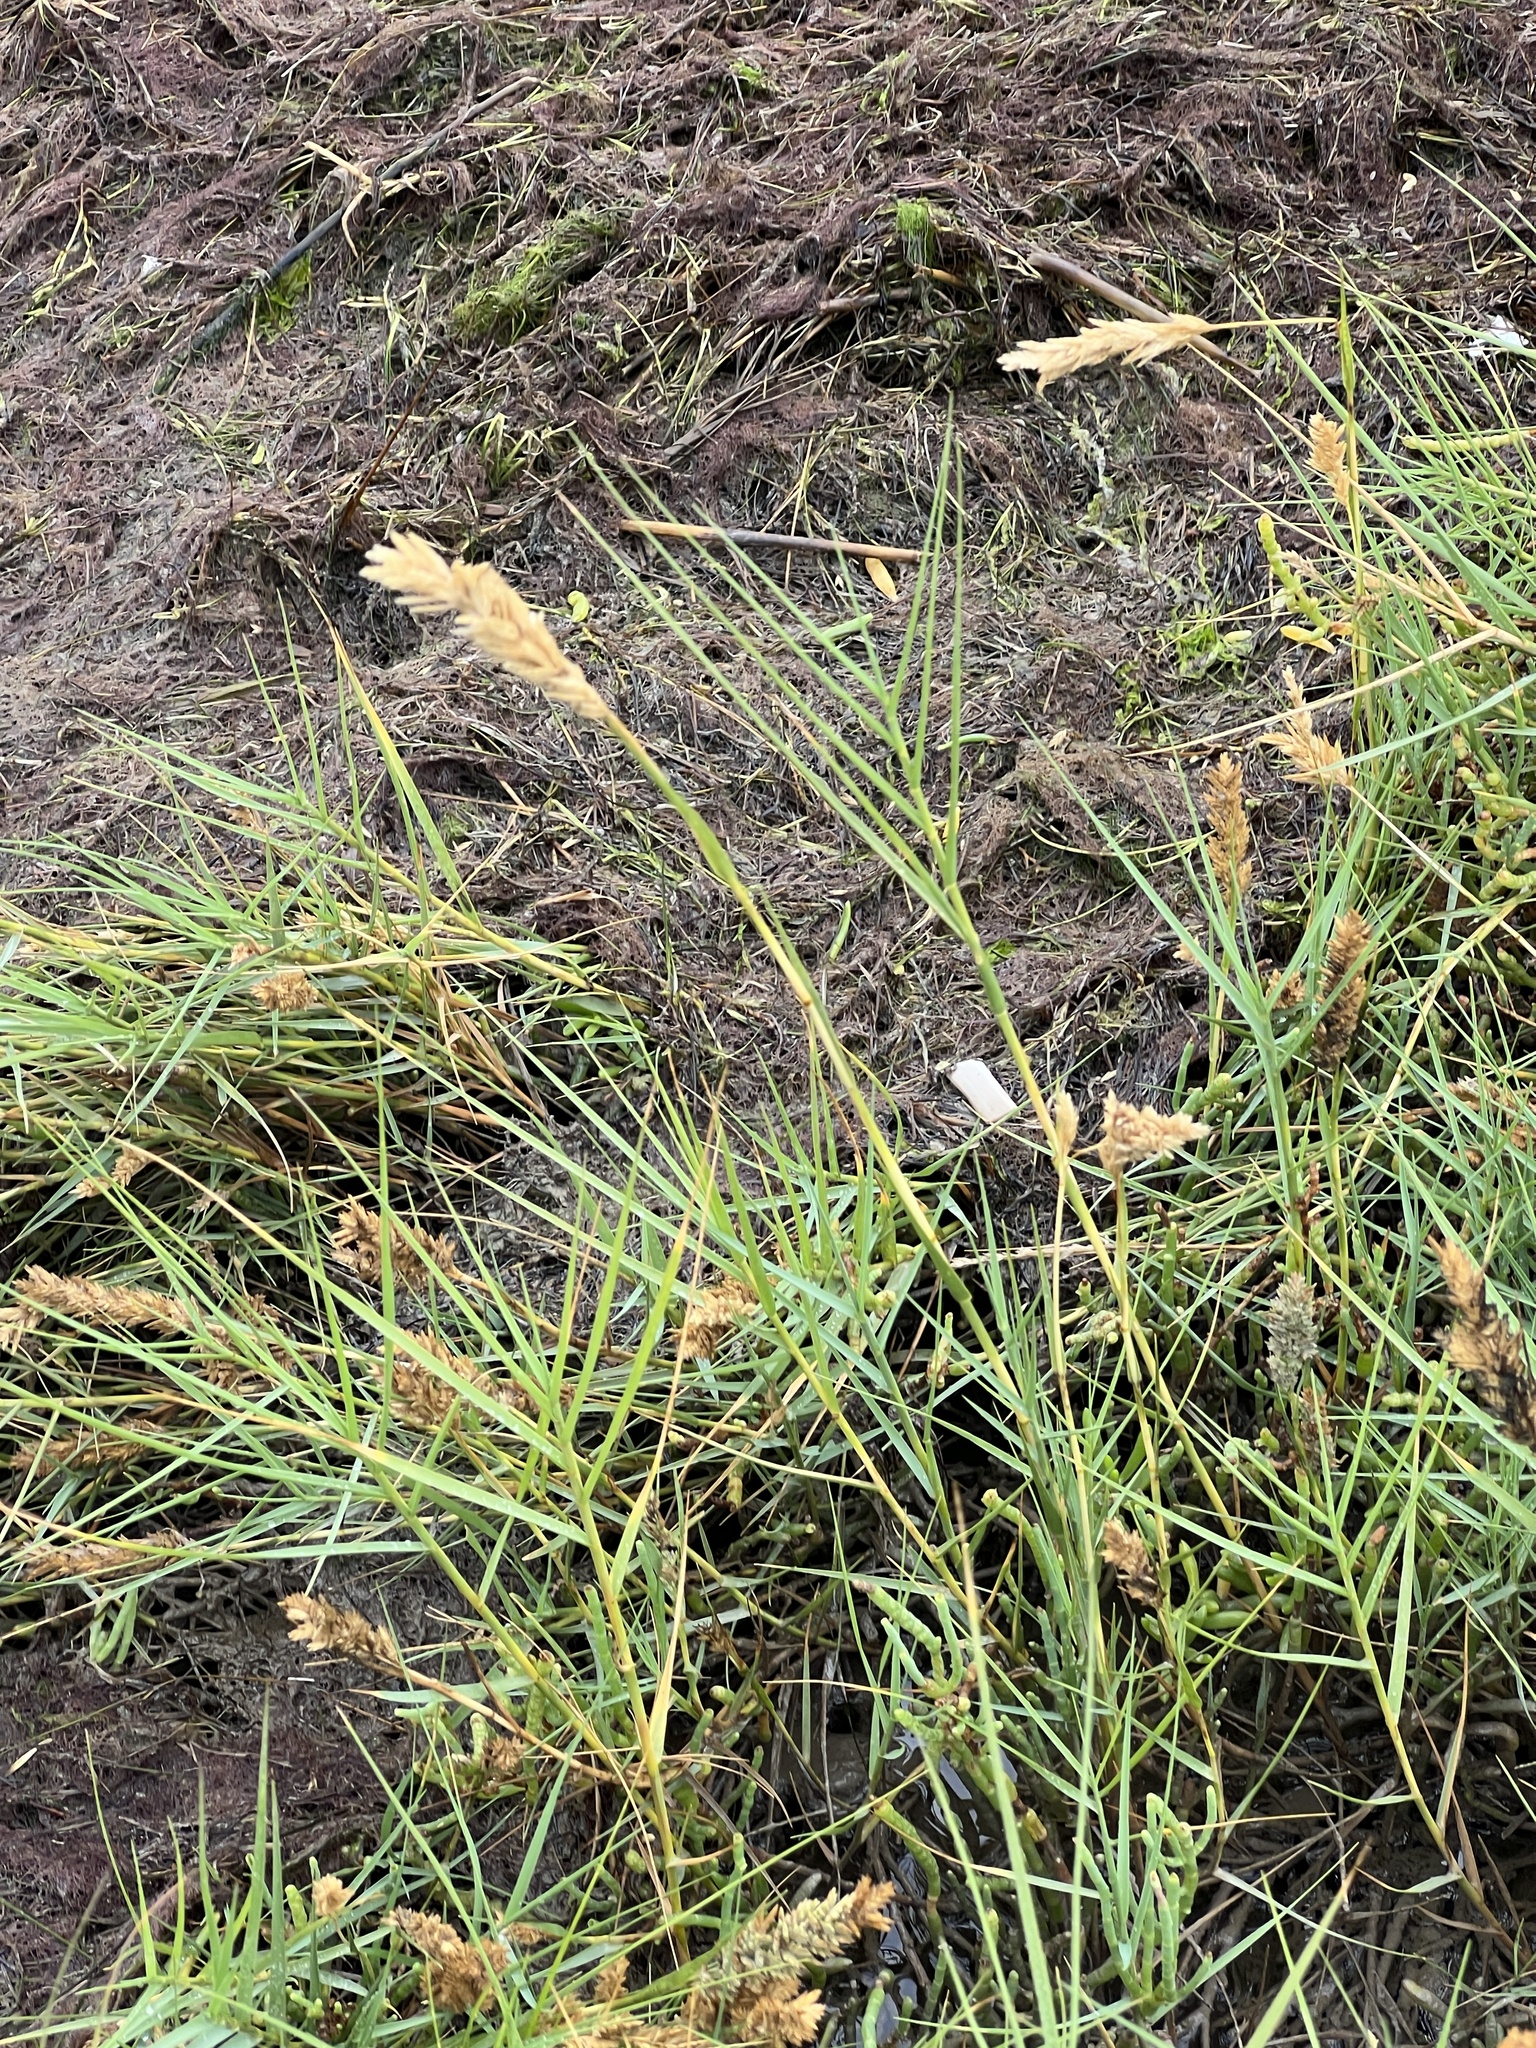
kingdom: Plantae
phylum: Tracheophyta
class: Liliopsida
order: Poales
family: Poaceae
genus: Distichlis
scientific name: Distichlis spicata
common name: Saltgrass
